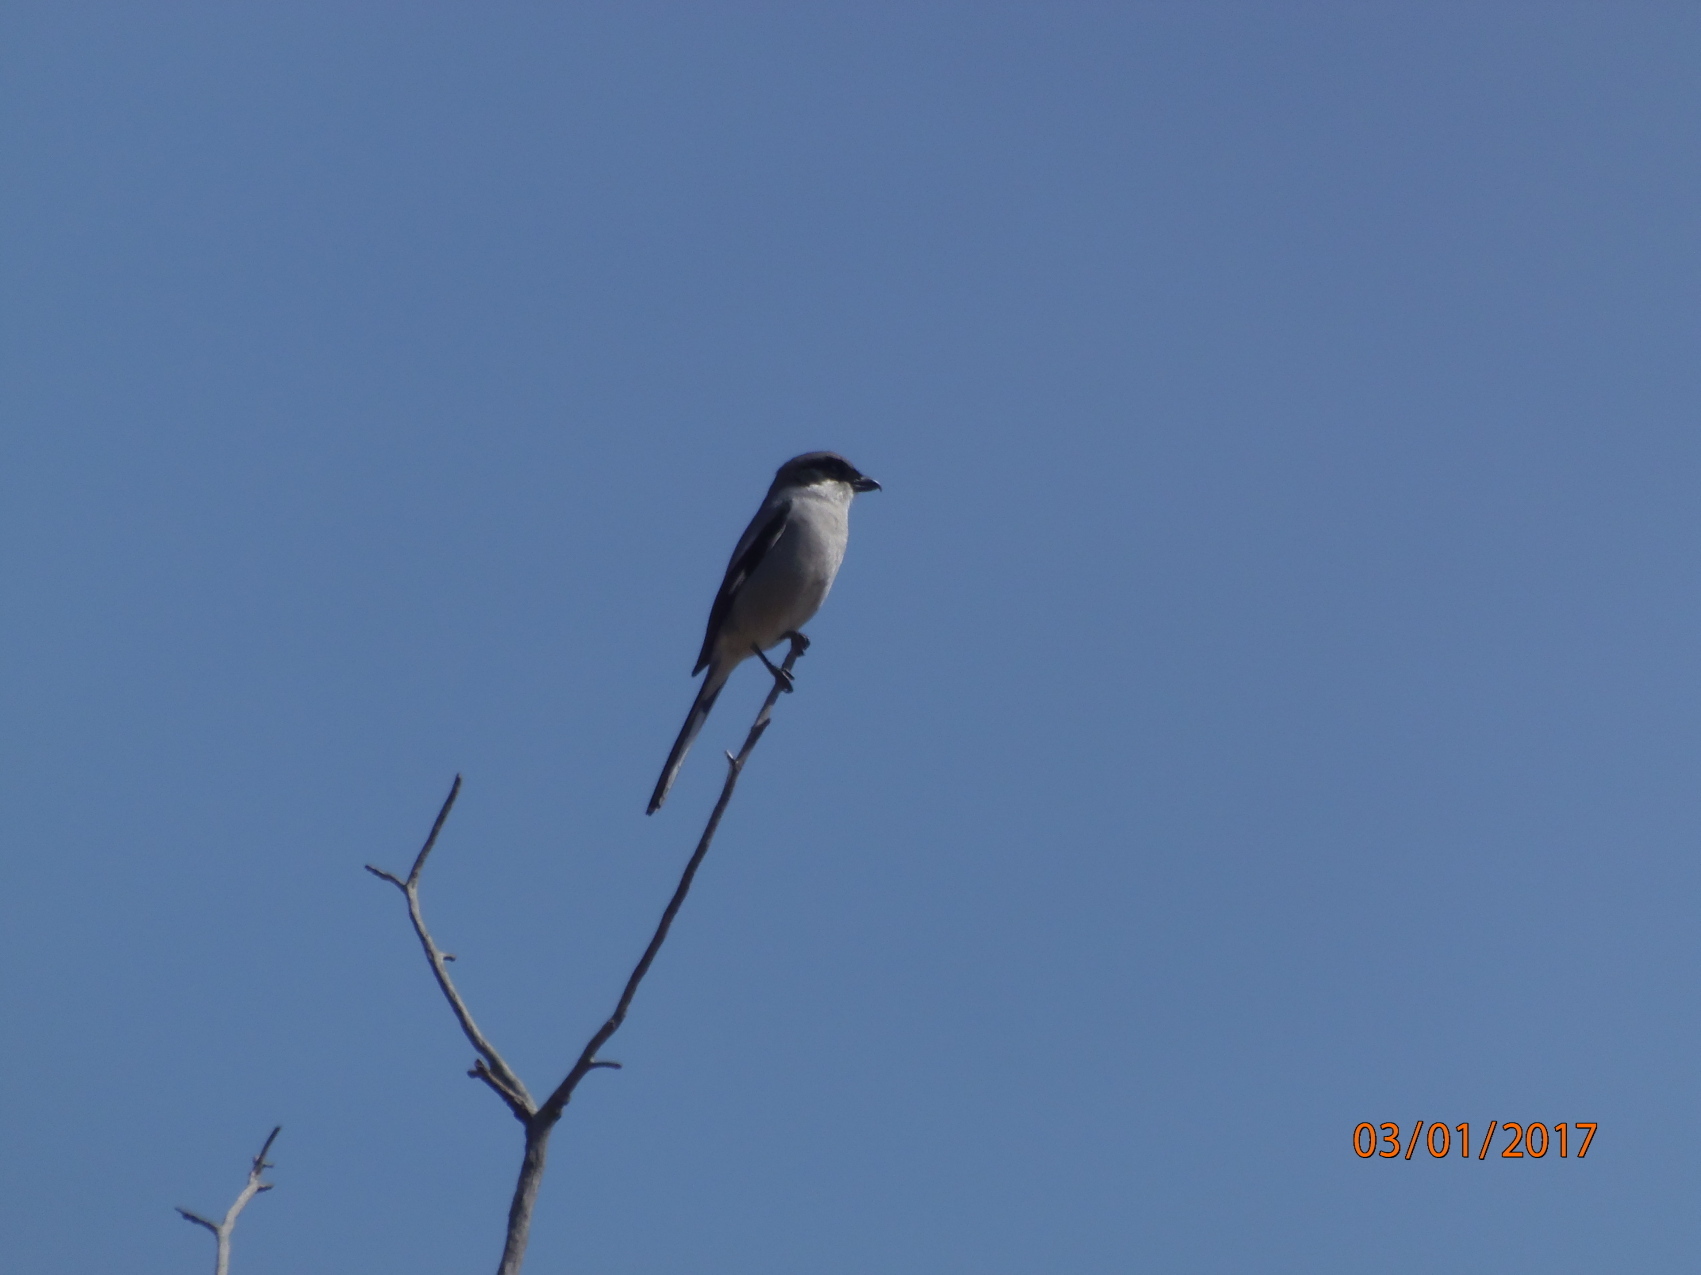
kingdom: Animalia
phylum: Chordata
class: Aves
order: Passeriformes
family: Laniidae
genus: Lanius
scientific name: Lanius ludovicianus
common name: Loggerhead shrike
